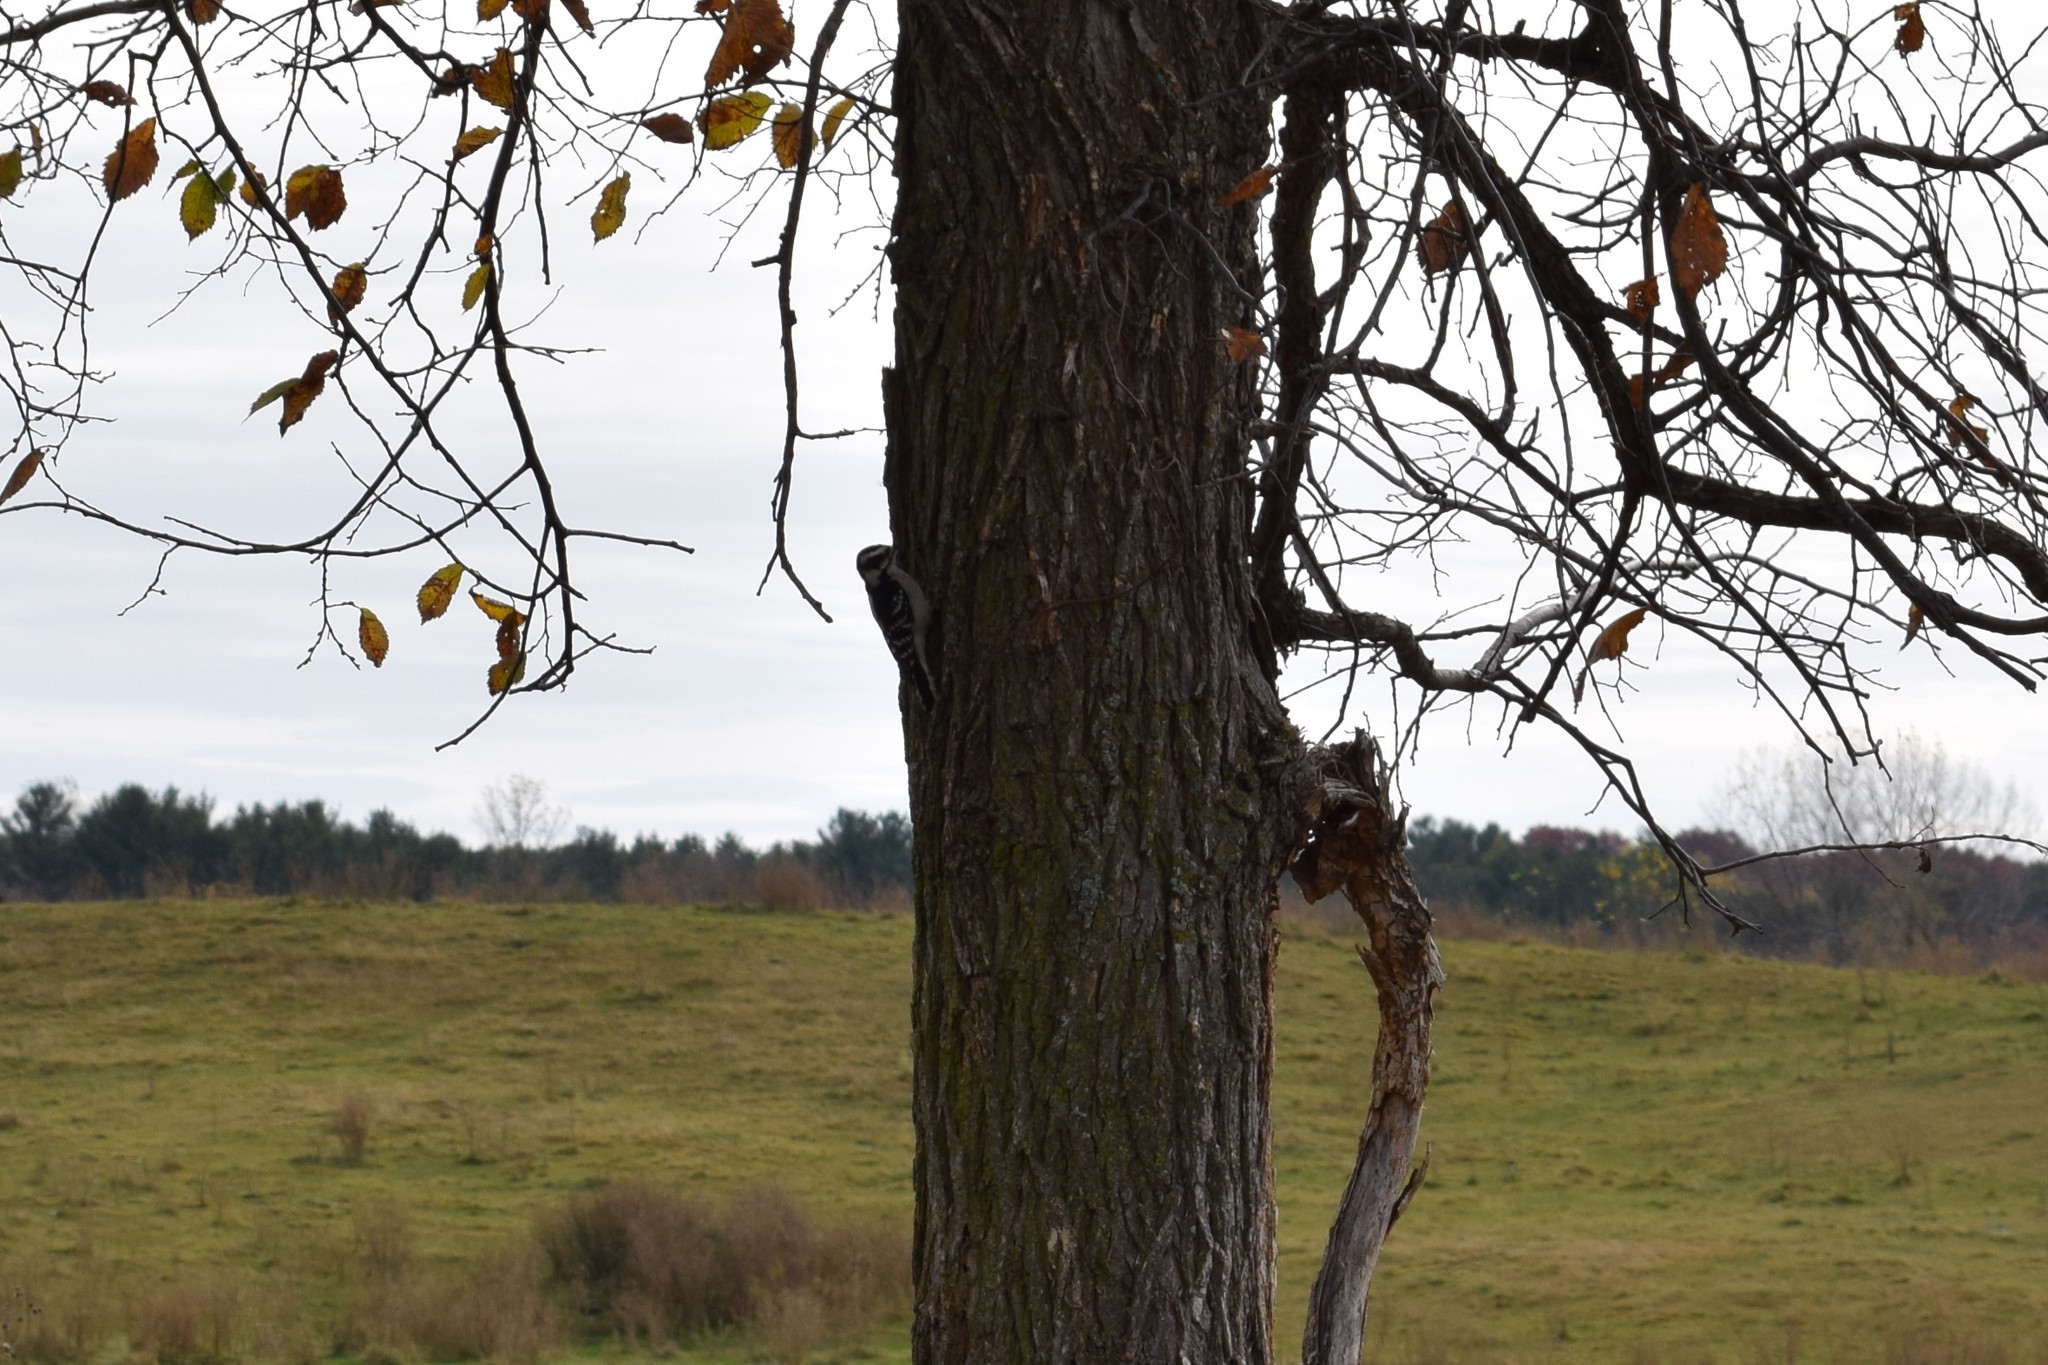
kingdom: Animalia
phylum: Chordata
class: Aves
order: Piciformes
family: Picidae
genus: Dryobates
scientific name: Dryobates pubescens
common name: Downy woodpecker
